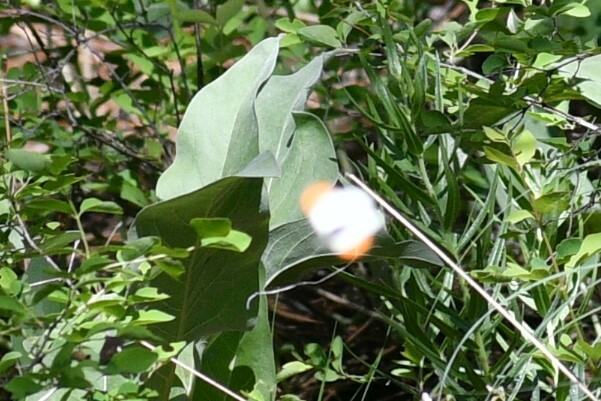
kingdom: Animalia
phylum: Arthropoda
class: Insecta
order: Lepidoptera
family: Pieridae
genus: Anthocharis
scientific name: Anthocharis julia
